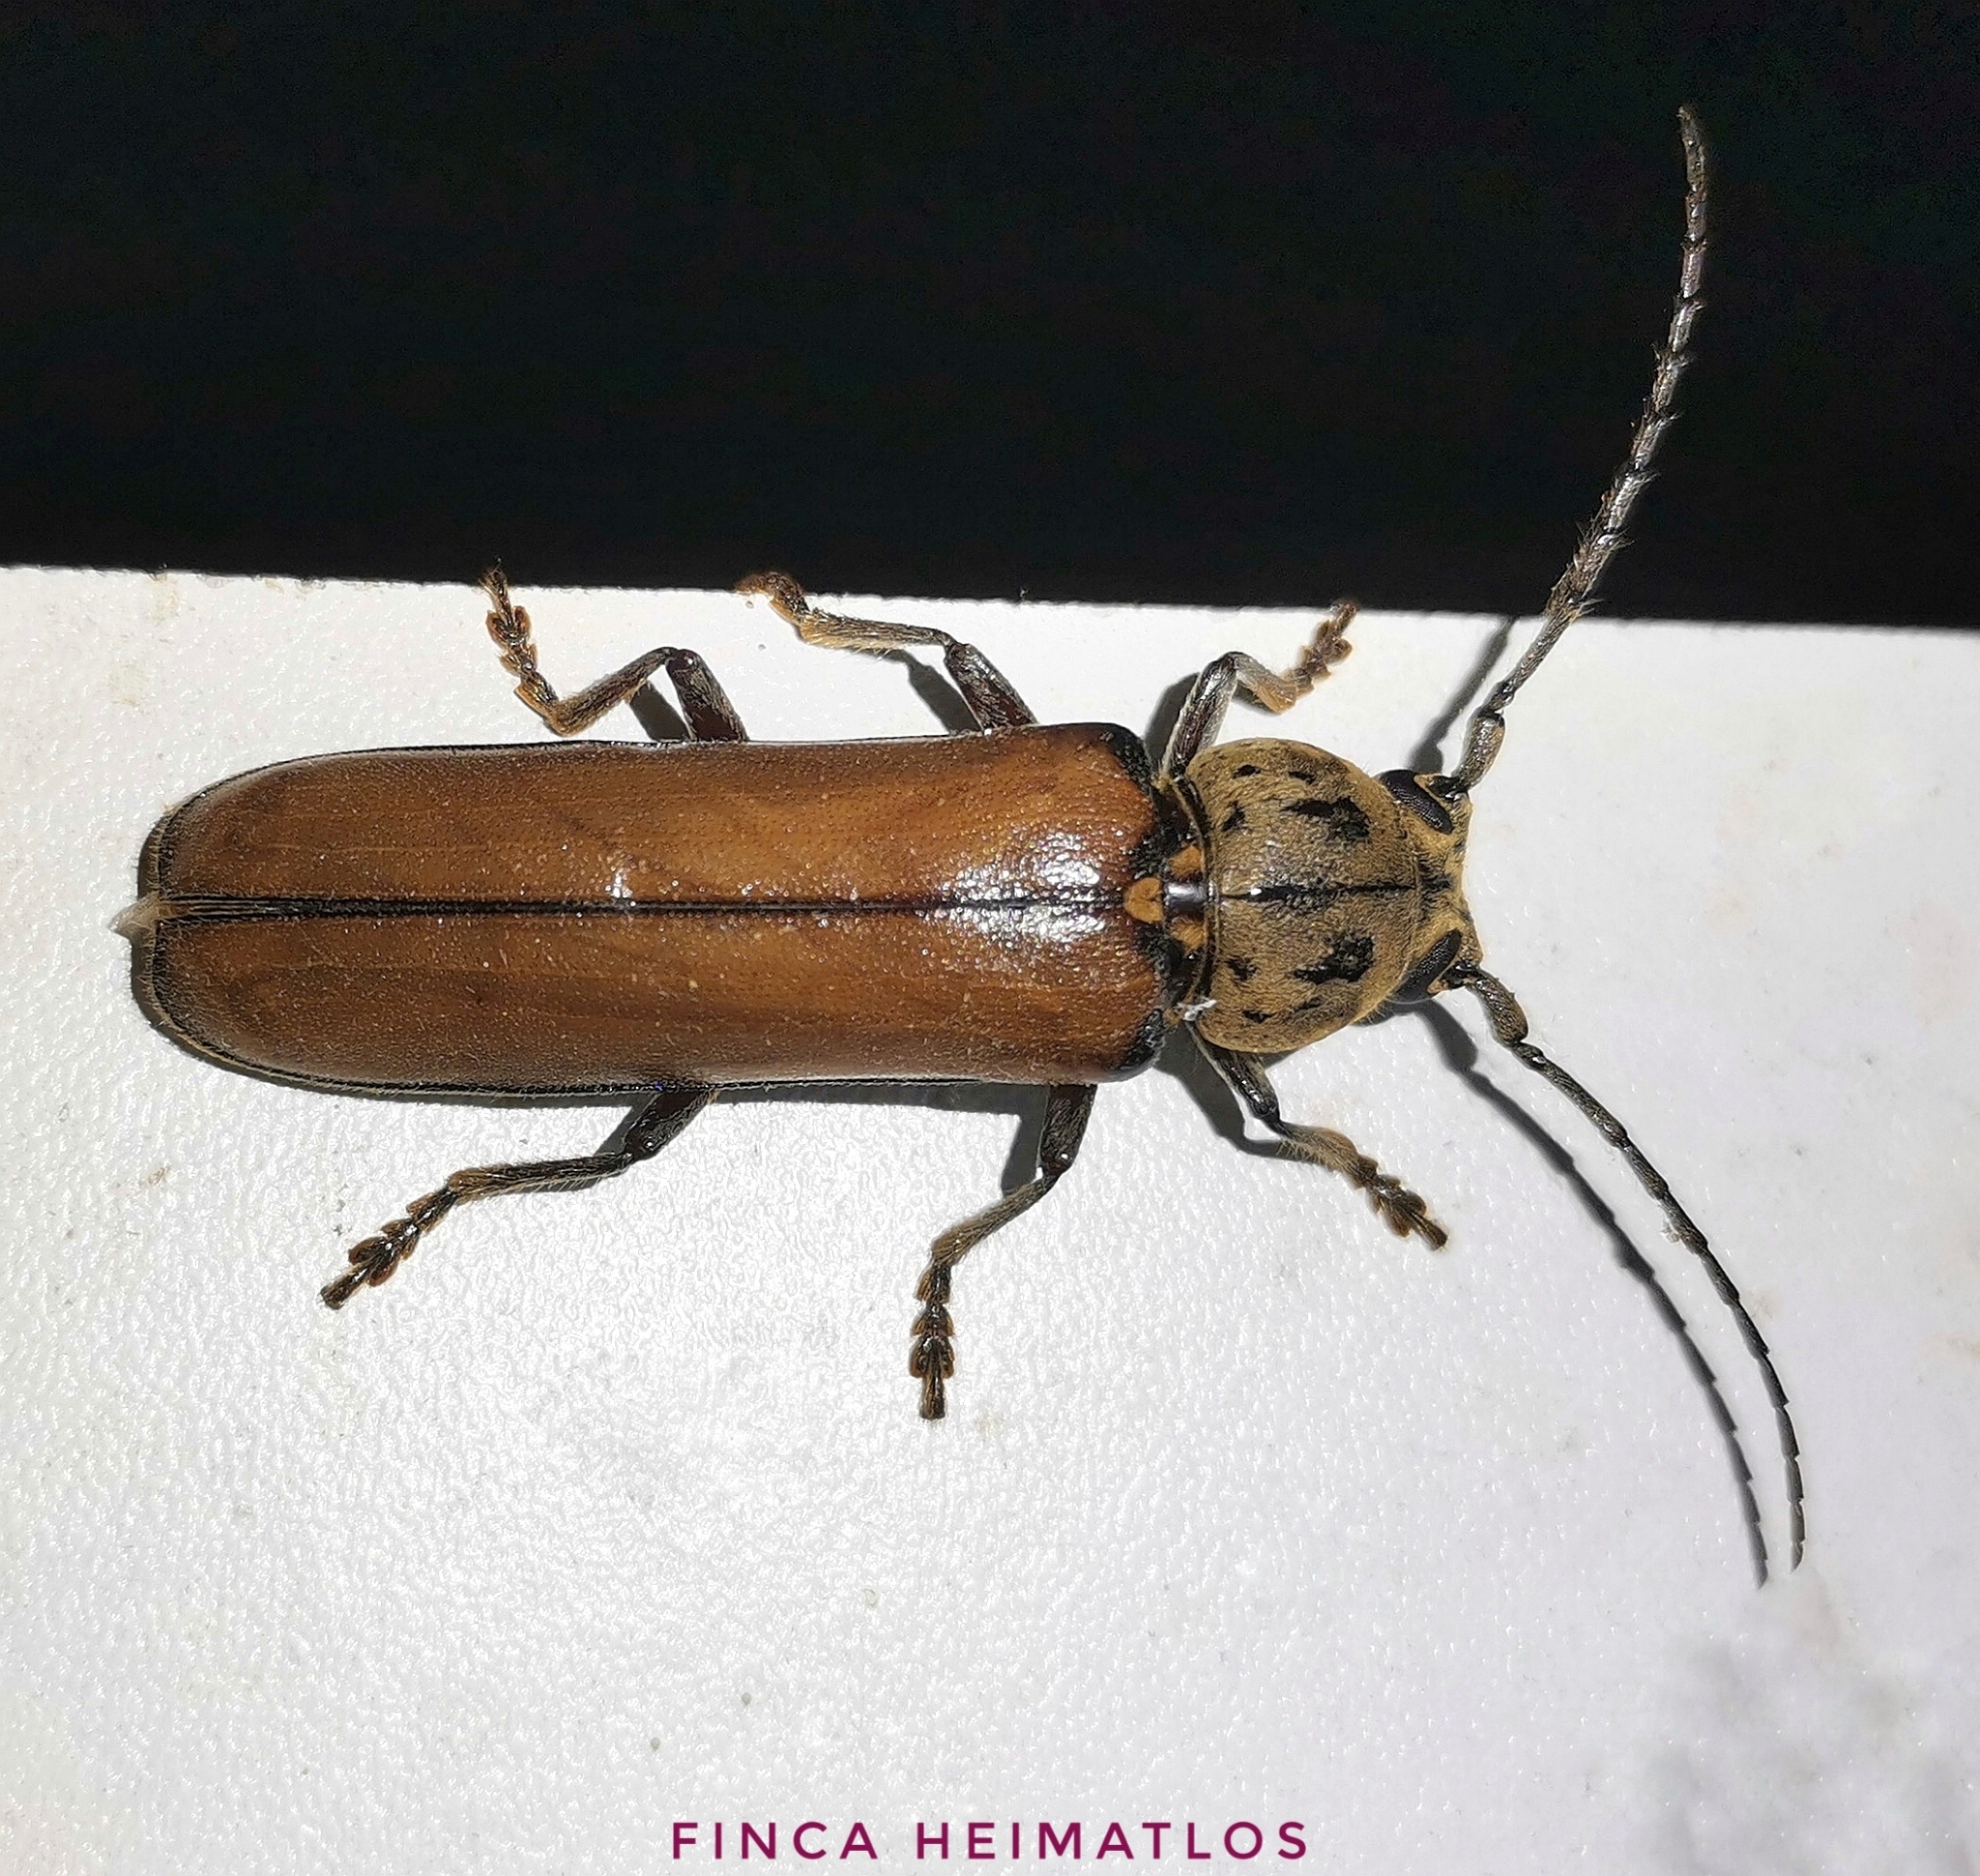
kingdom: Animalia
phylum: Arthropoda
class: Insecta
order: Coleoptera
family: Cerambycidae
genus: Diploschema
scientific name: Diploschema weyrauchi
